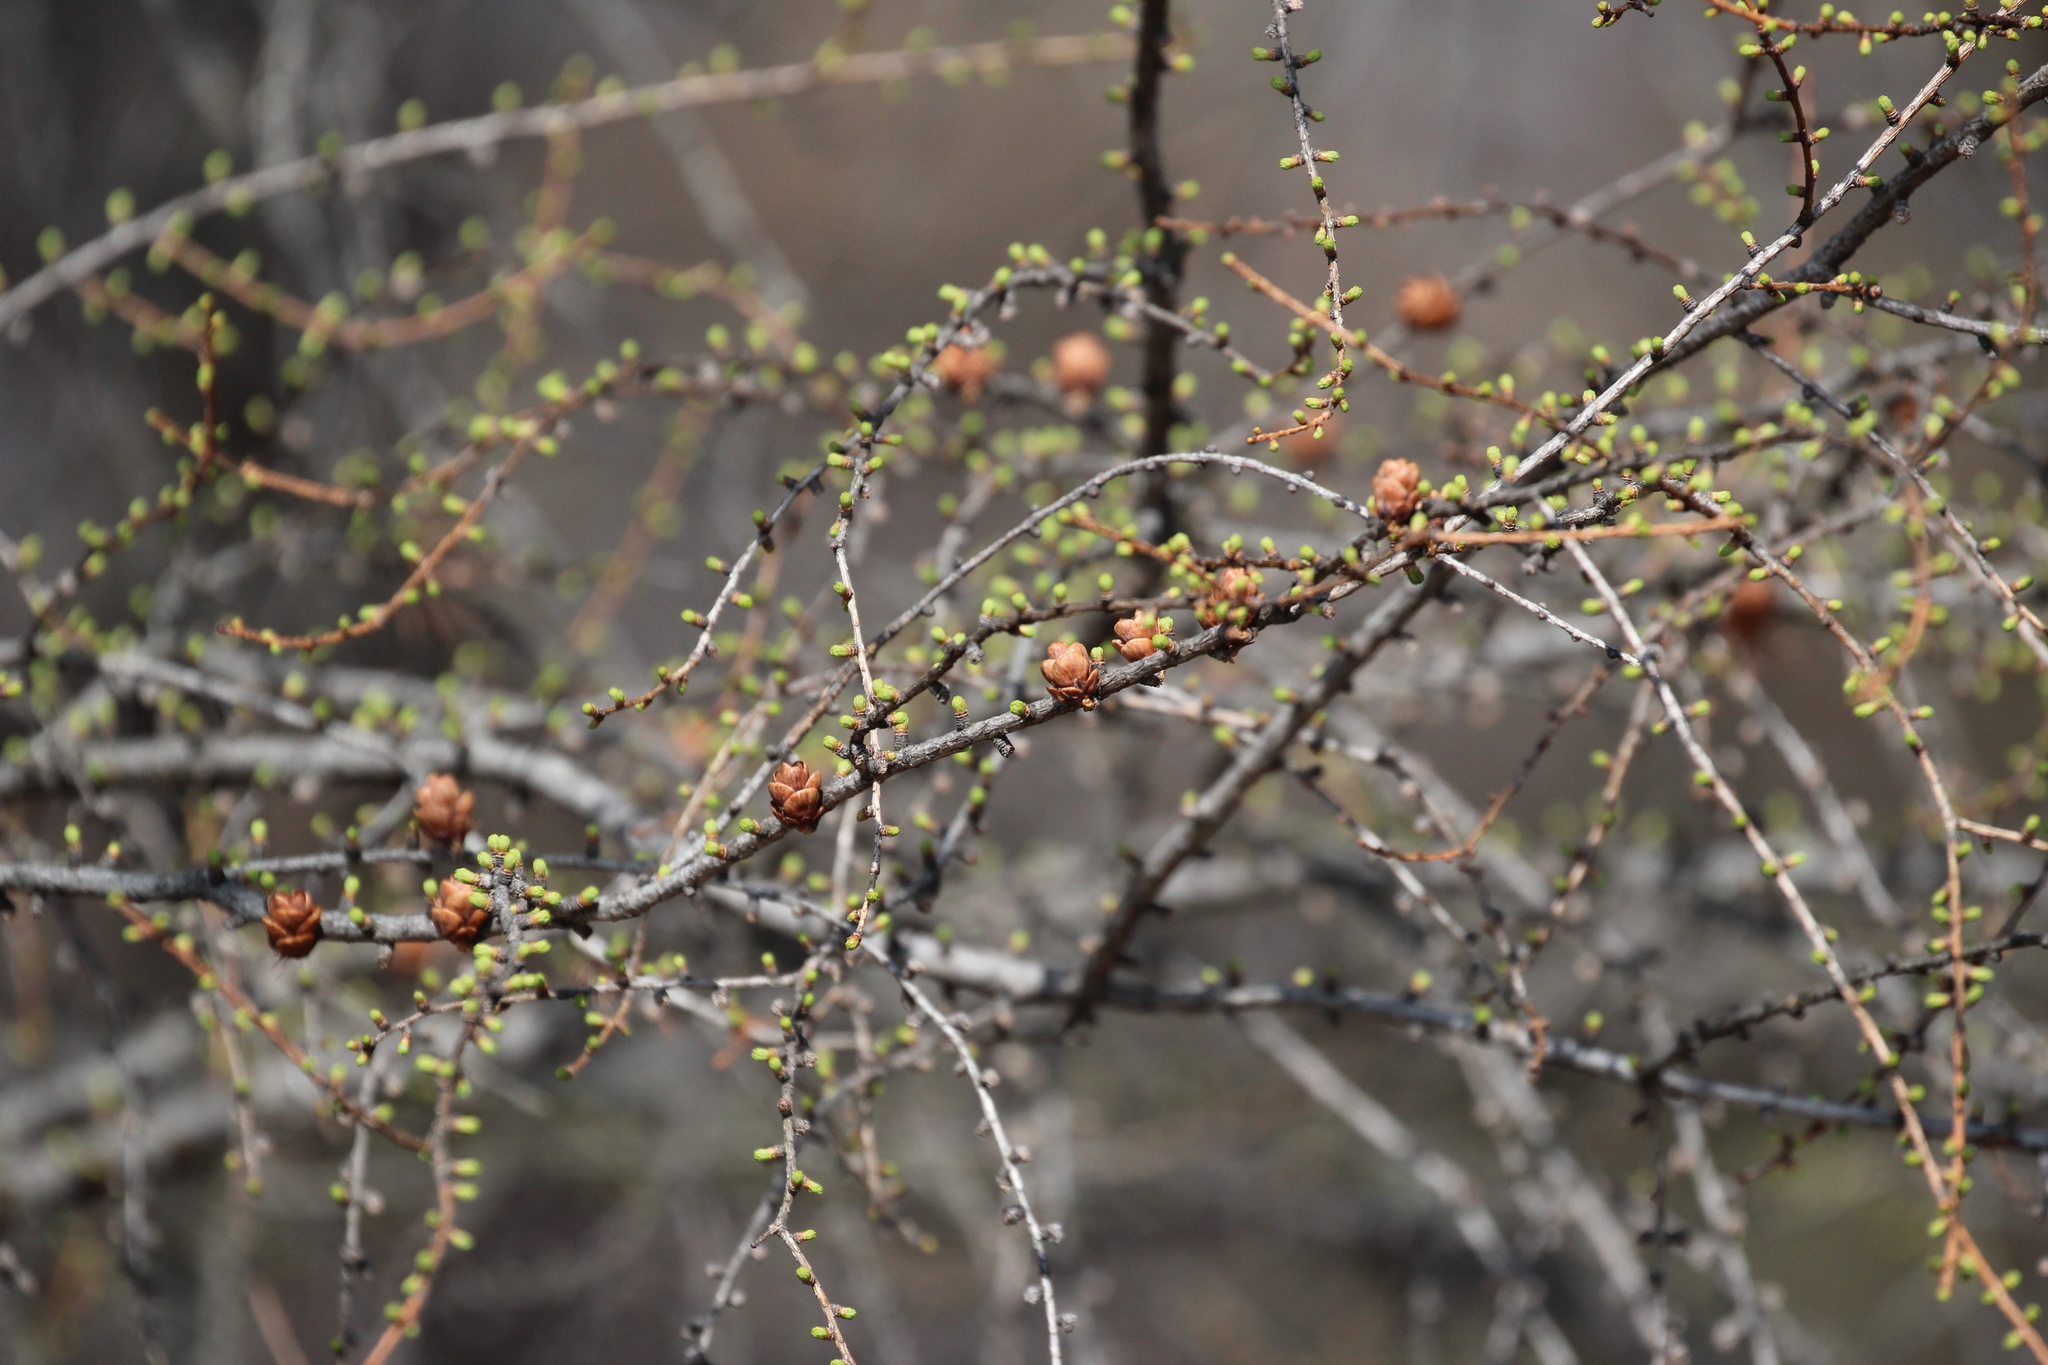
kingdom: Plantae
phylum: Tracheophyta
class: Pinopsida
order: Pinales
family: Pinaceae
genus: Larix
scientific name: Larix laricina
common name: American larch
